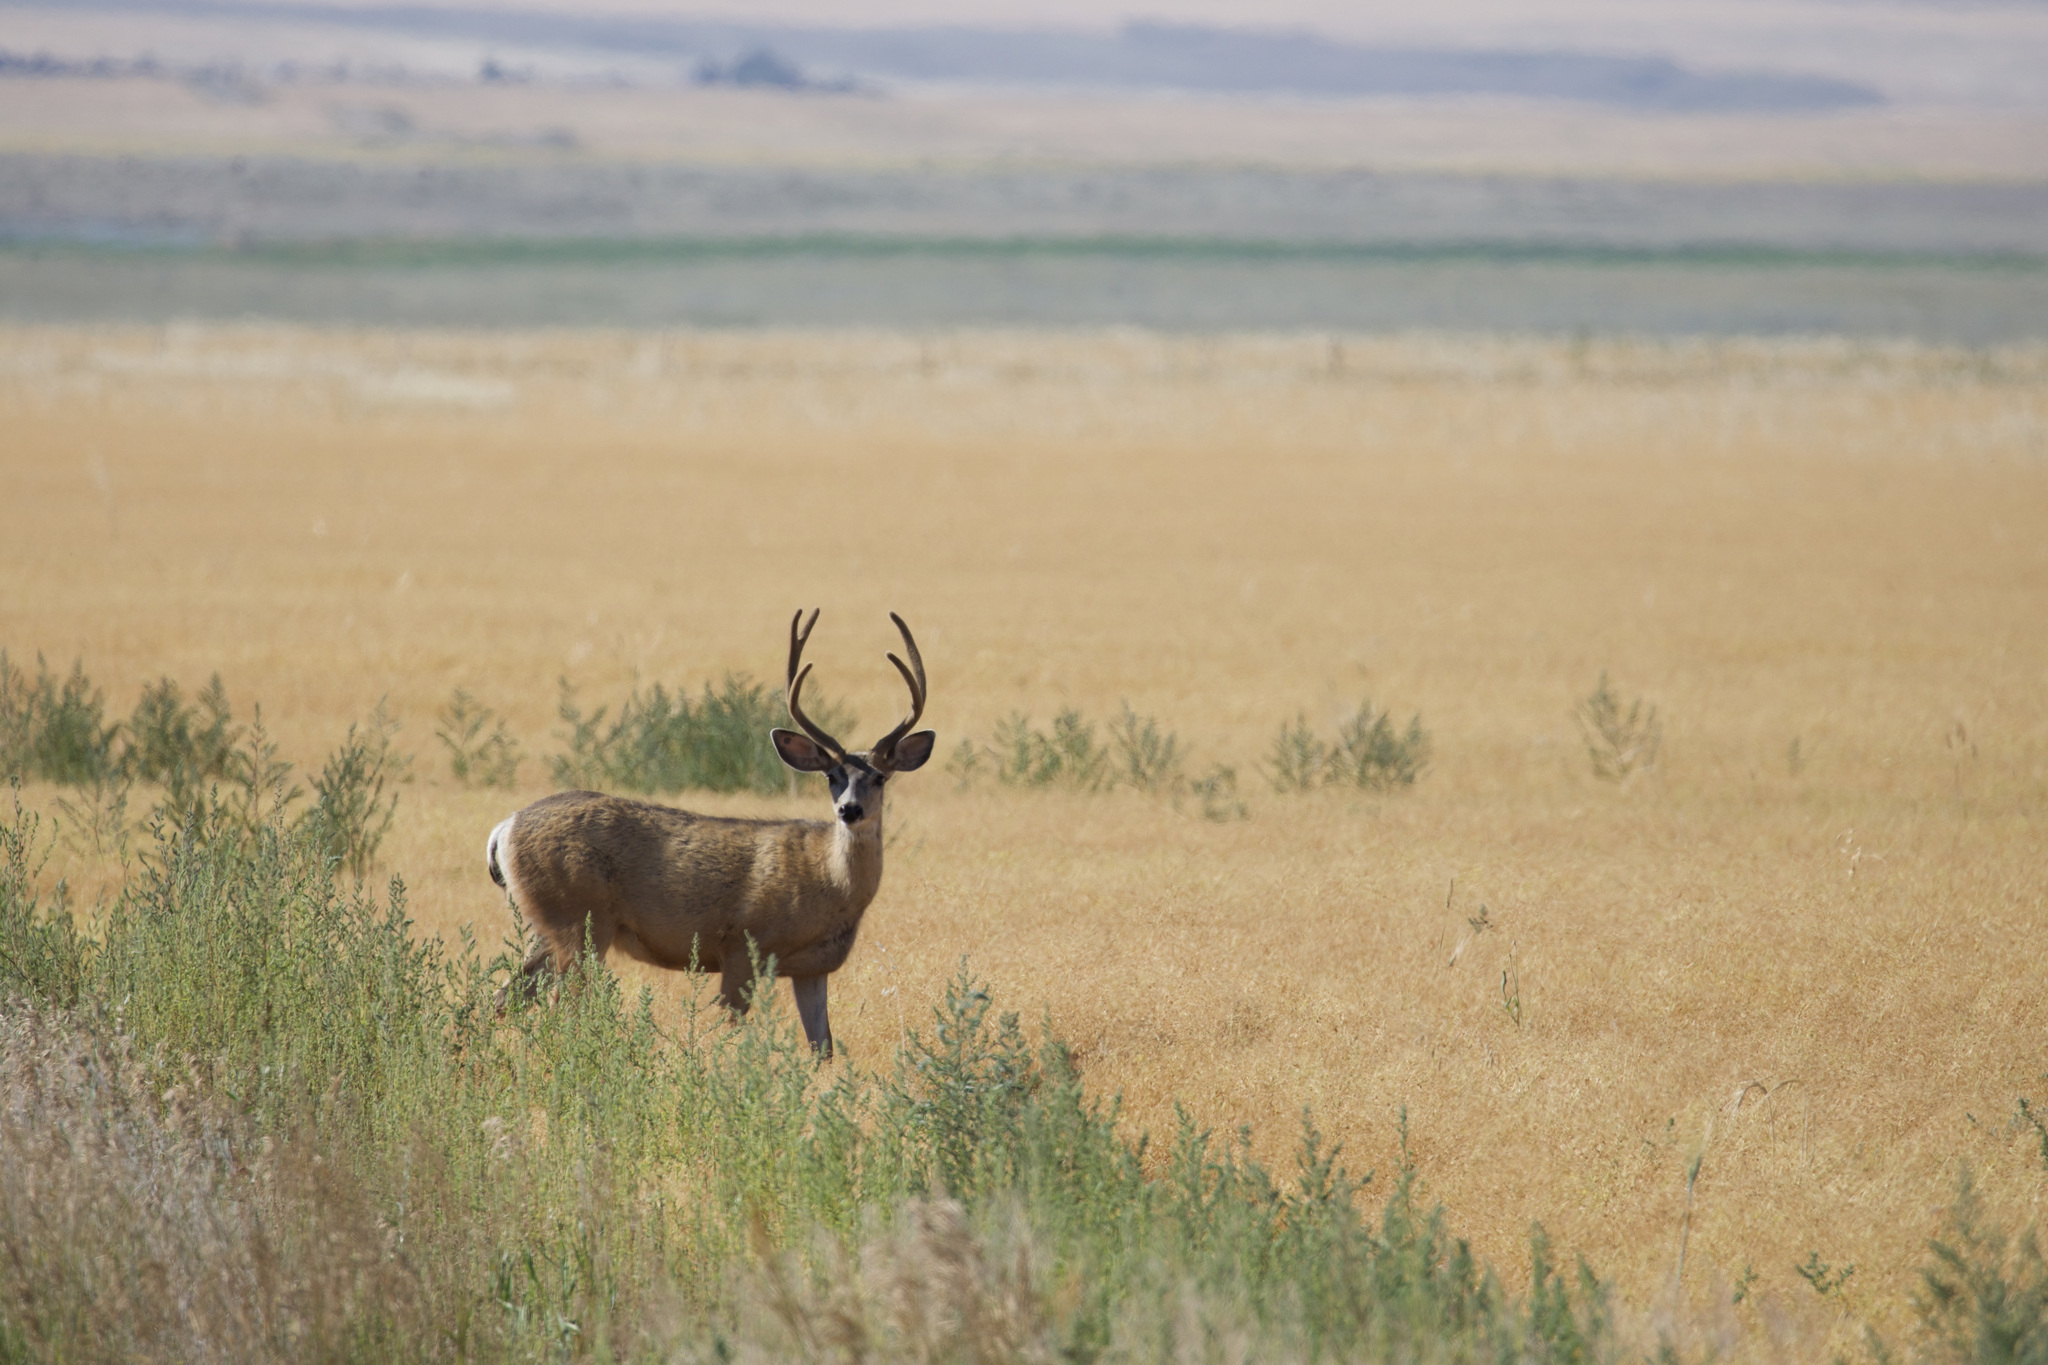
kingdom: Animalia
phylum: Chordata
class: Mammalia
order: Artiodactyla
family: Cervidae
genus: Odocoileus
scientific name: Odocoileus hemionus
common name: Mule deer
